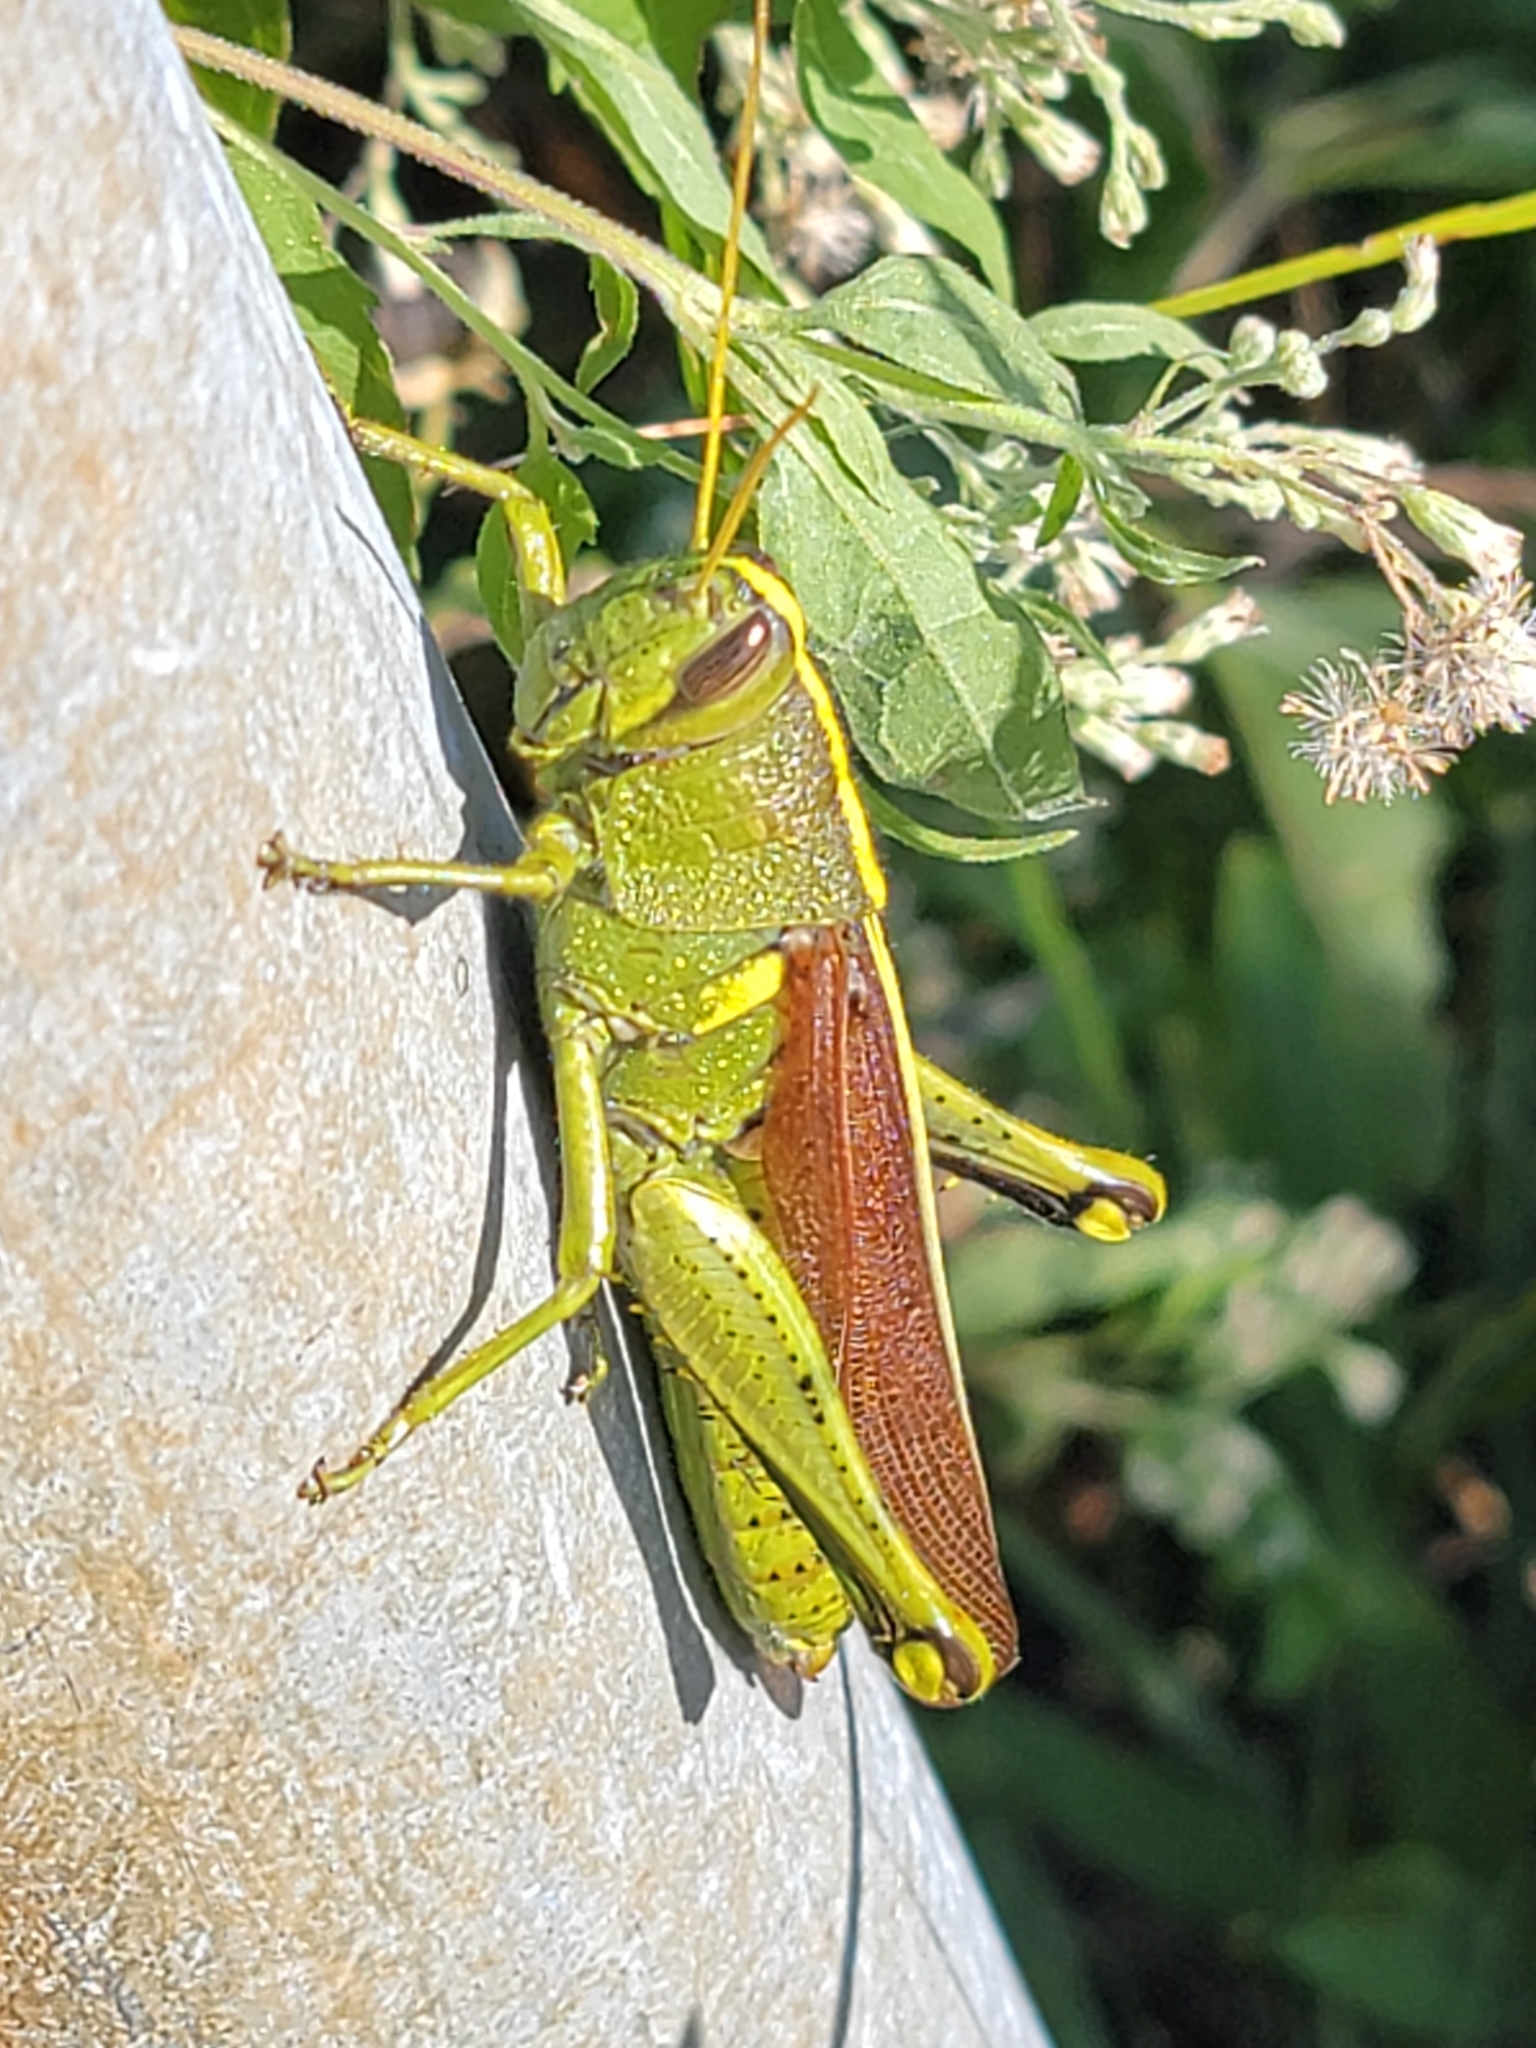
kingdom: Animalia
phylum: Arthropoda
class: Insecta
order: Orthoptera
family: Acrididae
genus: Schistocerca
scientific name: Schistocerca obscura
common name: Obscure bird grasshopper
